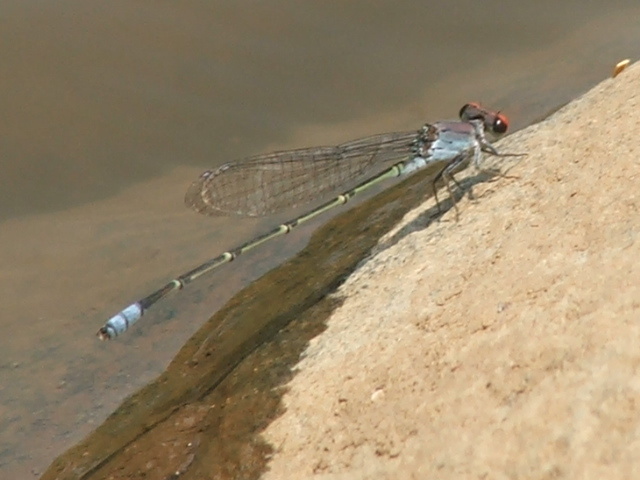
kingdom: Animalia
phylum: Arthropoda
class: Insecta
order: Odonata
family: Coenagrionidae
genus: Pseudagrion
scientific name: Pseudagrion sublacteum
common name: Cherry-eye sprite
